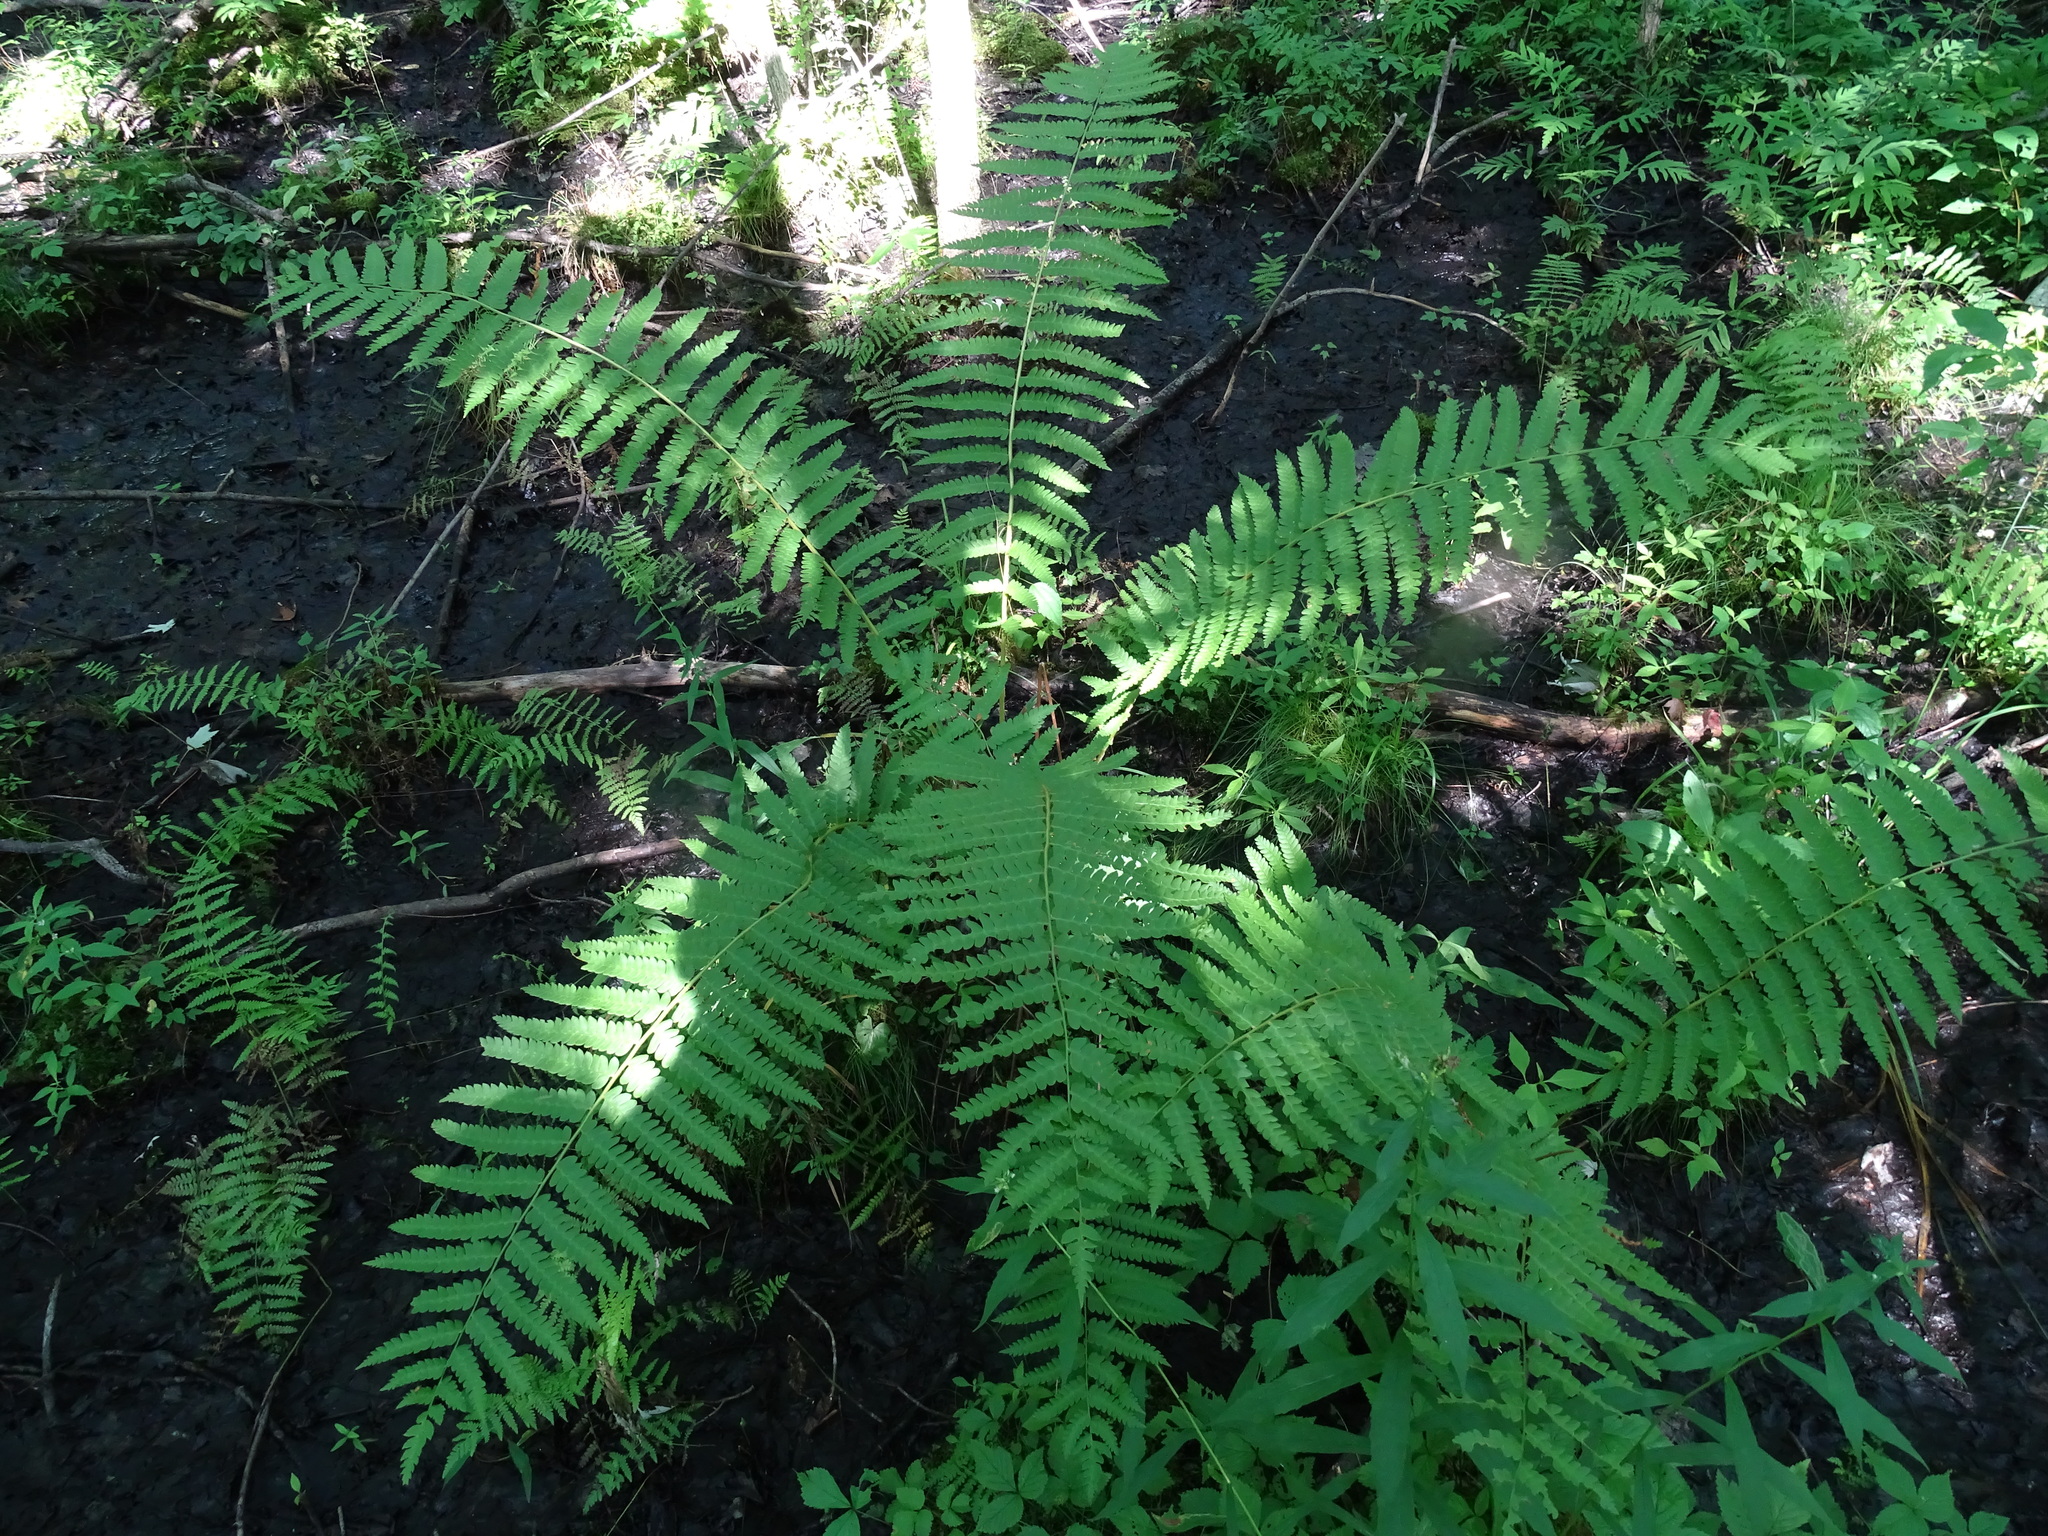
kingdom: Plantae
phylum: Tracheophyta
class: Polypodiopsida
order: Osmundales
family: Osmundaceae
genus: Osmundastrum
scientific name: Osmundastrum cinnamomeum
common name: Cinnamon fern
